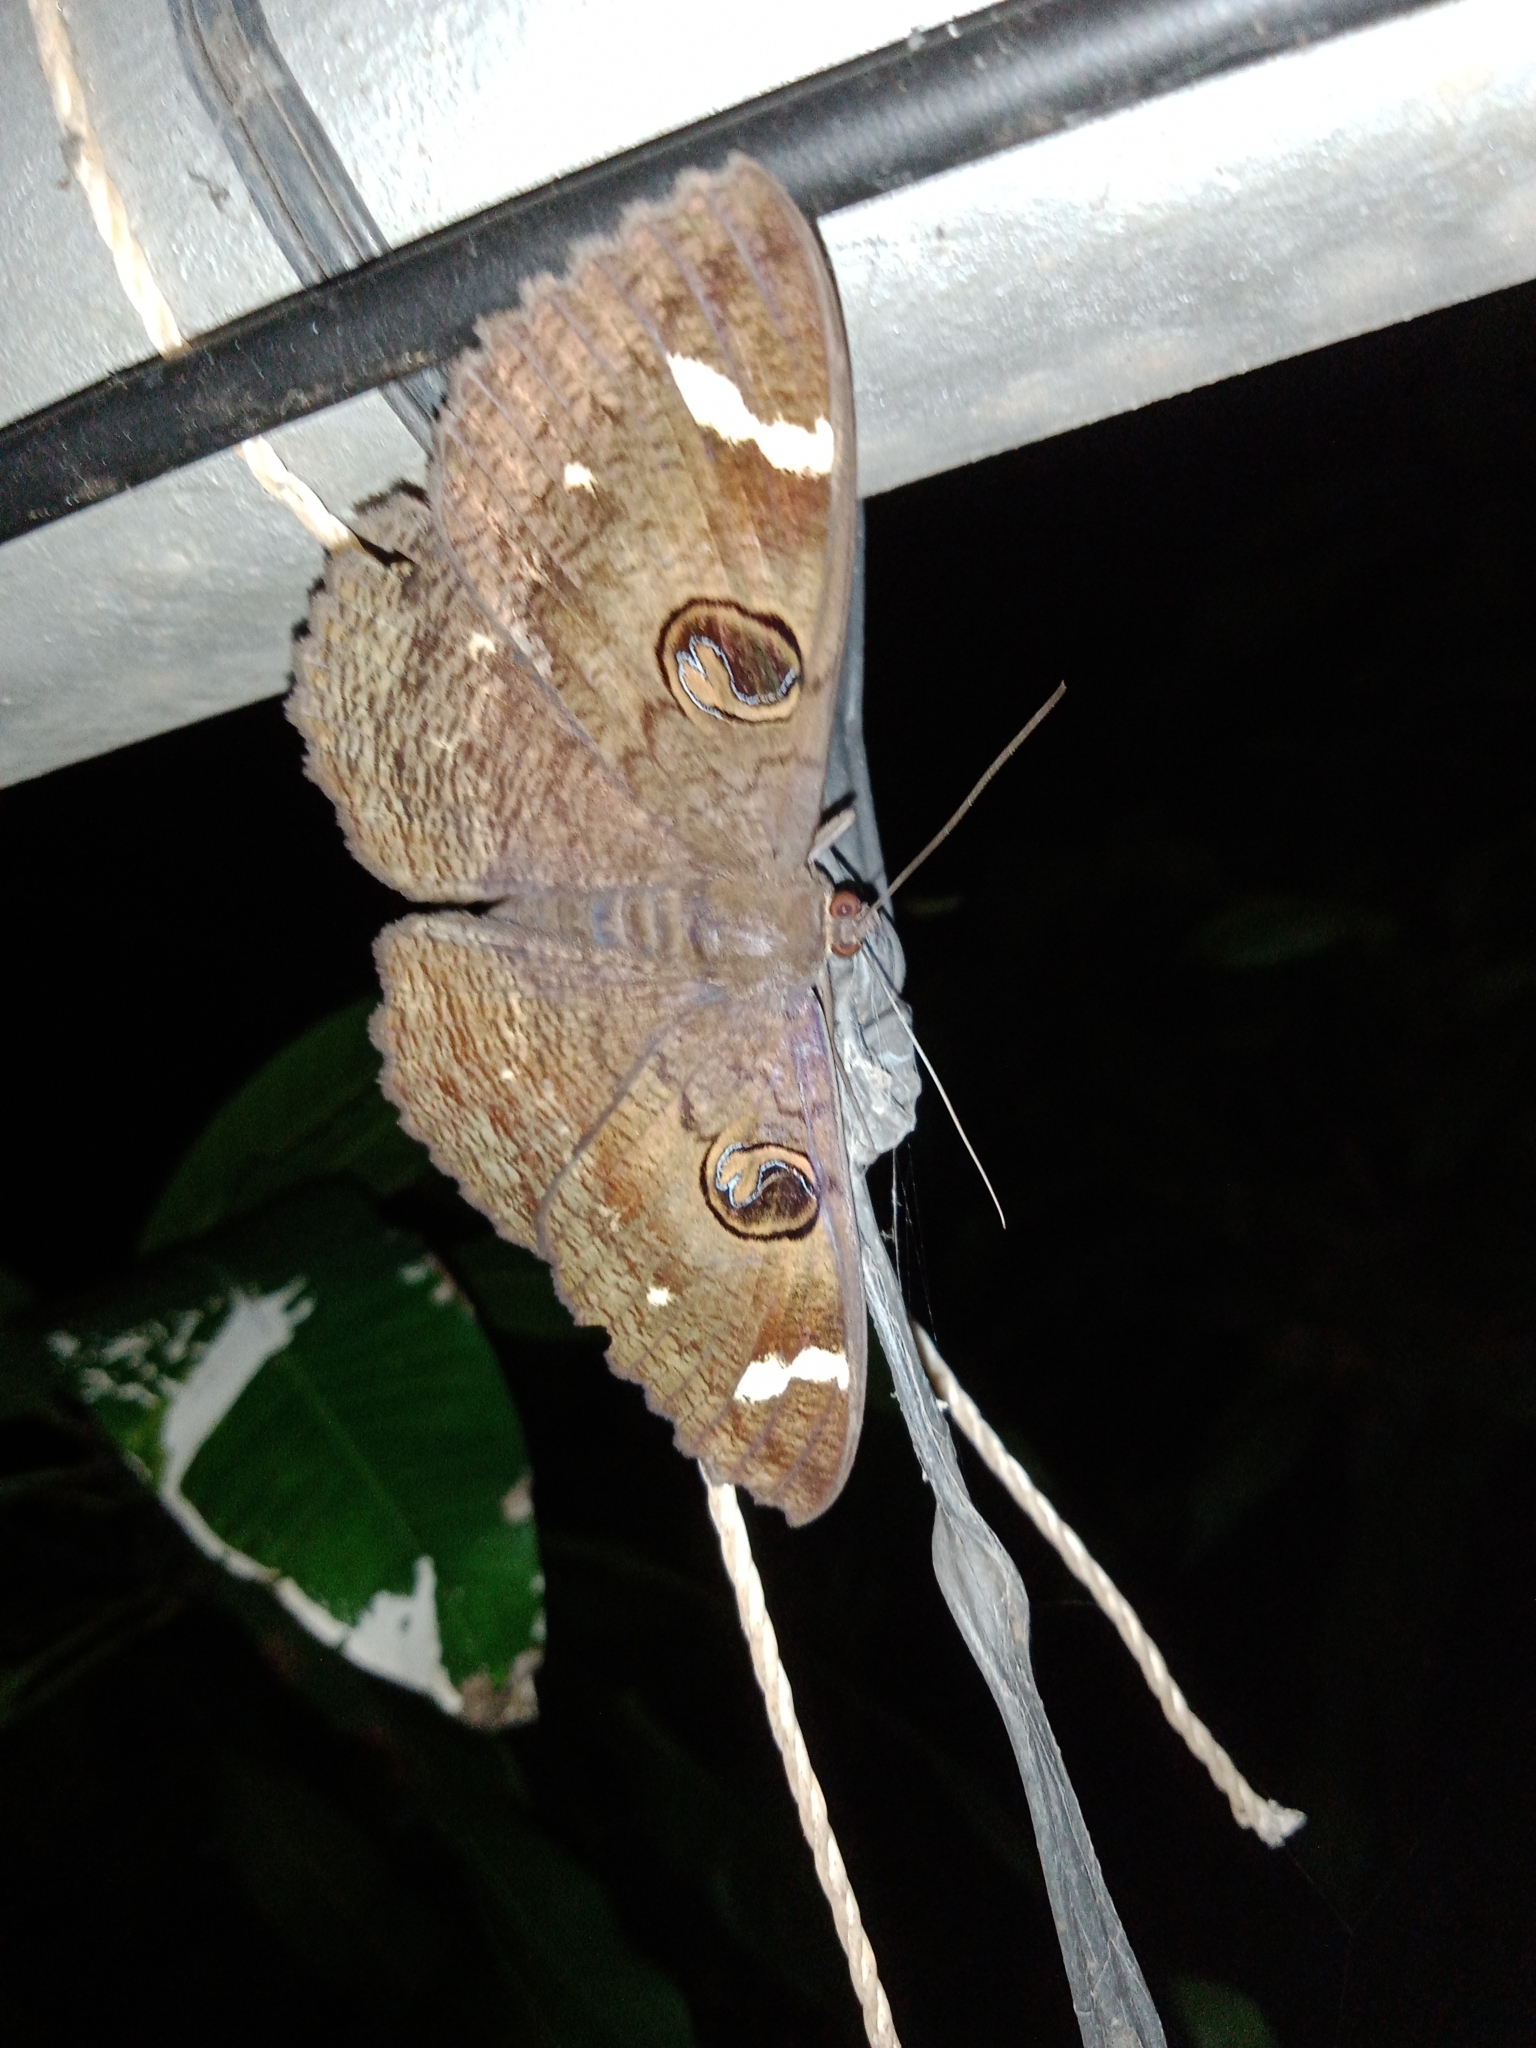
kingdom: Animalia
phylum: Arthropoda
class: Insecta
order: Lepidoptera
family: Erebidae
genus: Erebus
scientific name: Erebus hieroglyphica
